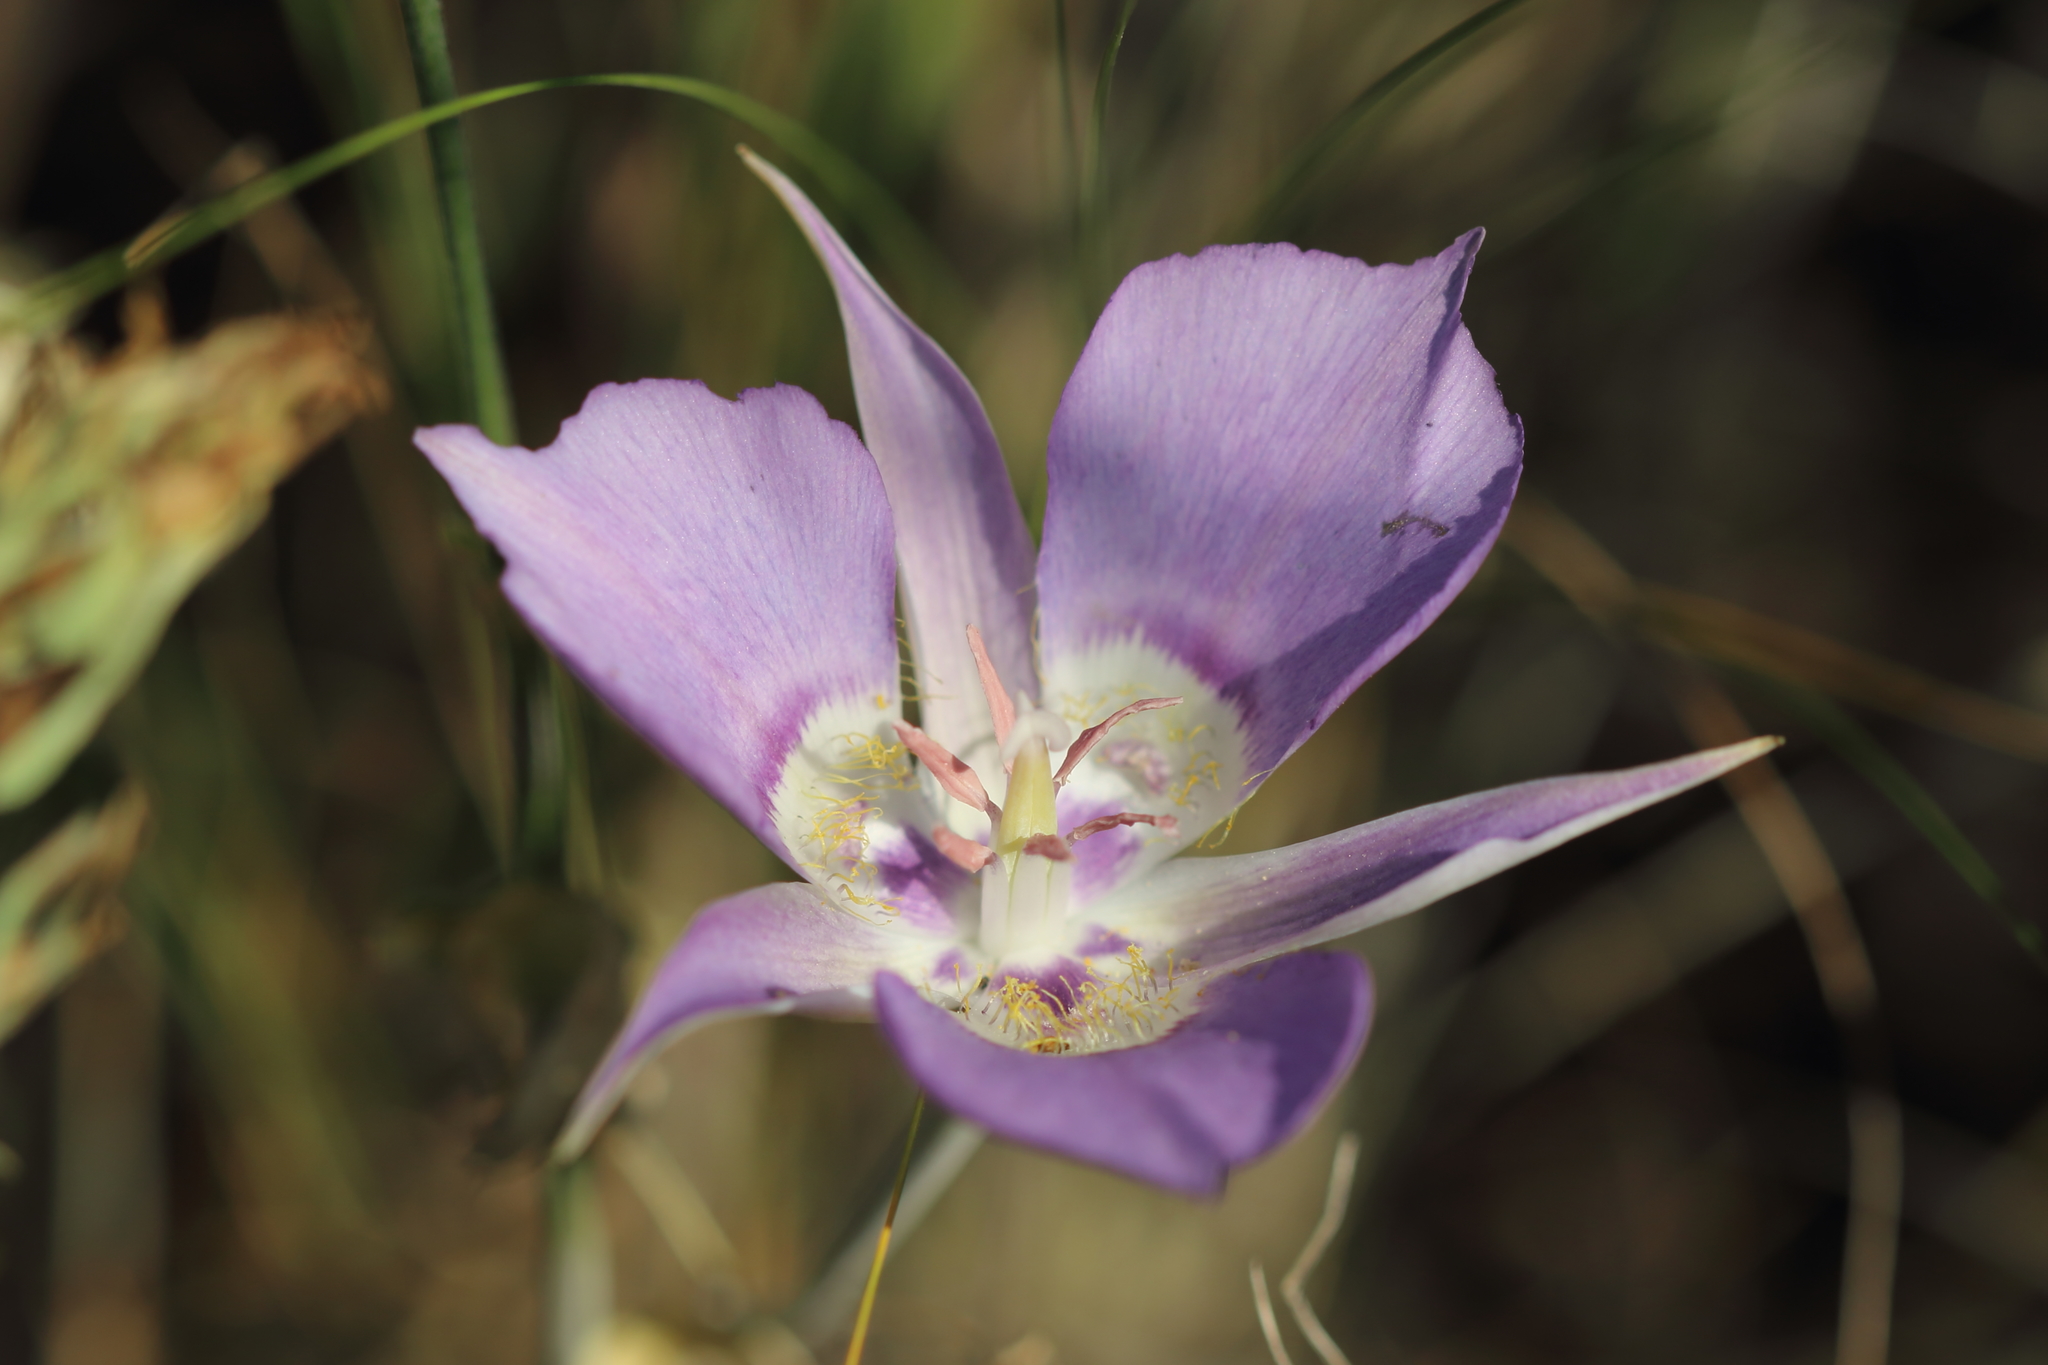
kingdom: Plantae
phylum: Tracheophyta
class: Liliopsida
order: Liliales
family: Liliaceae
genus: Calochortus
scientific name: Calochortus macrocarpus
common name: Green-band mariposa lily
